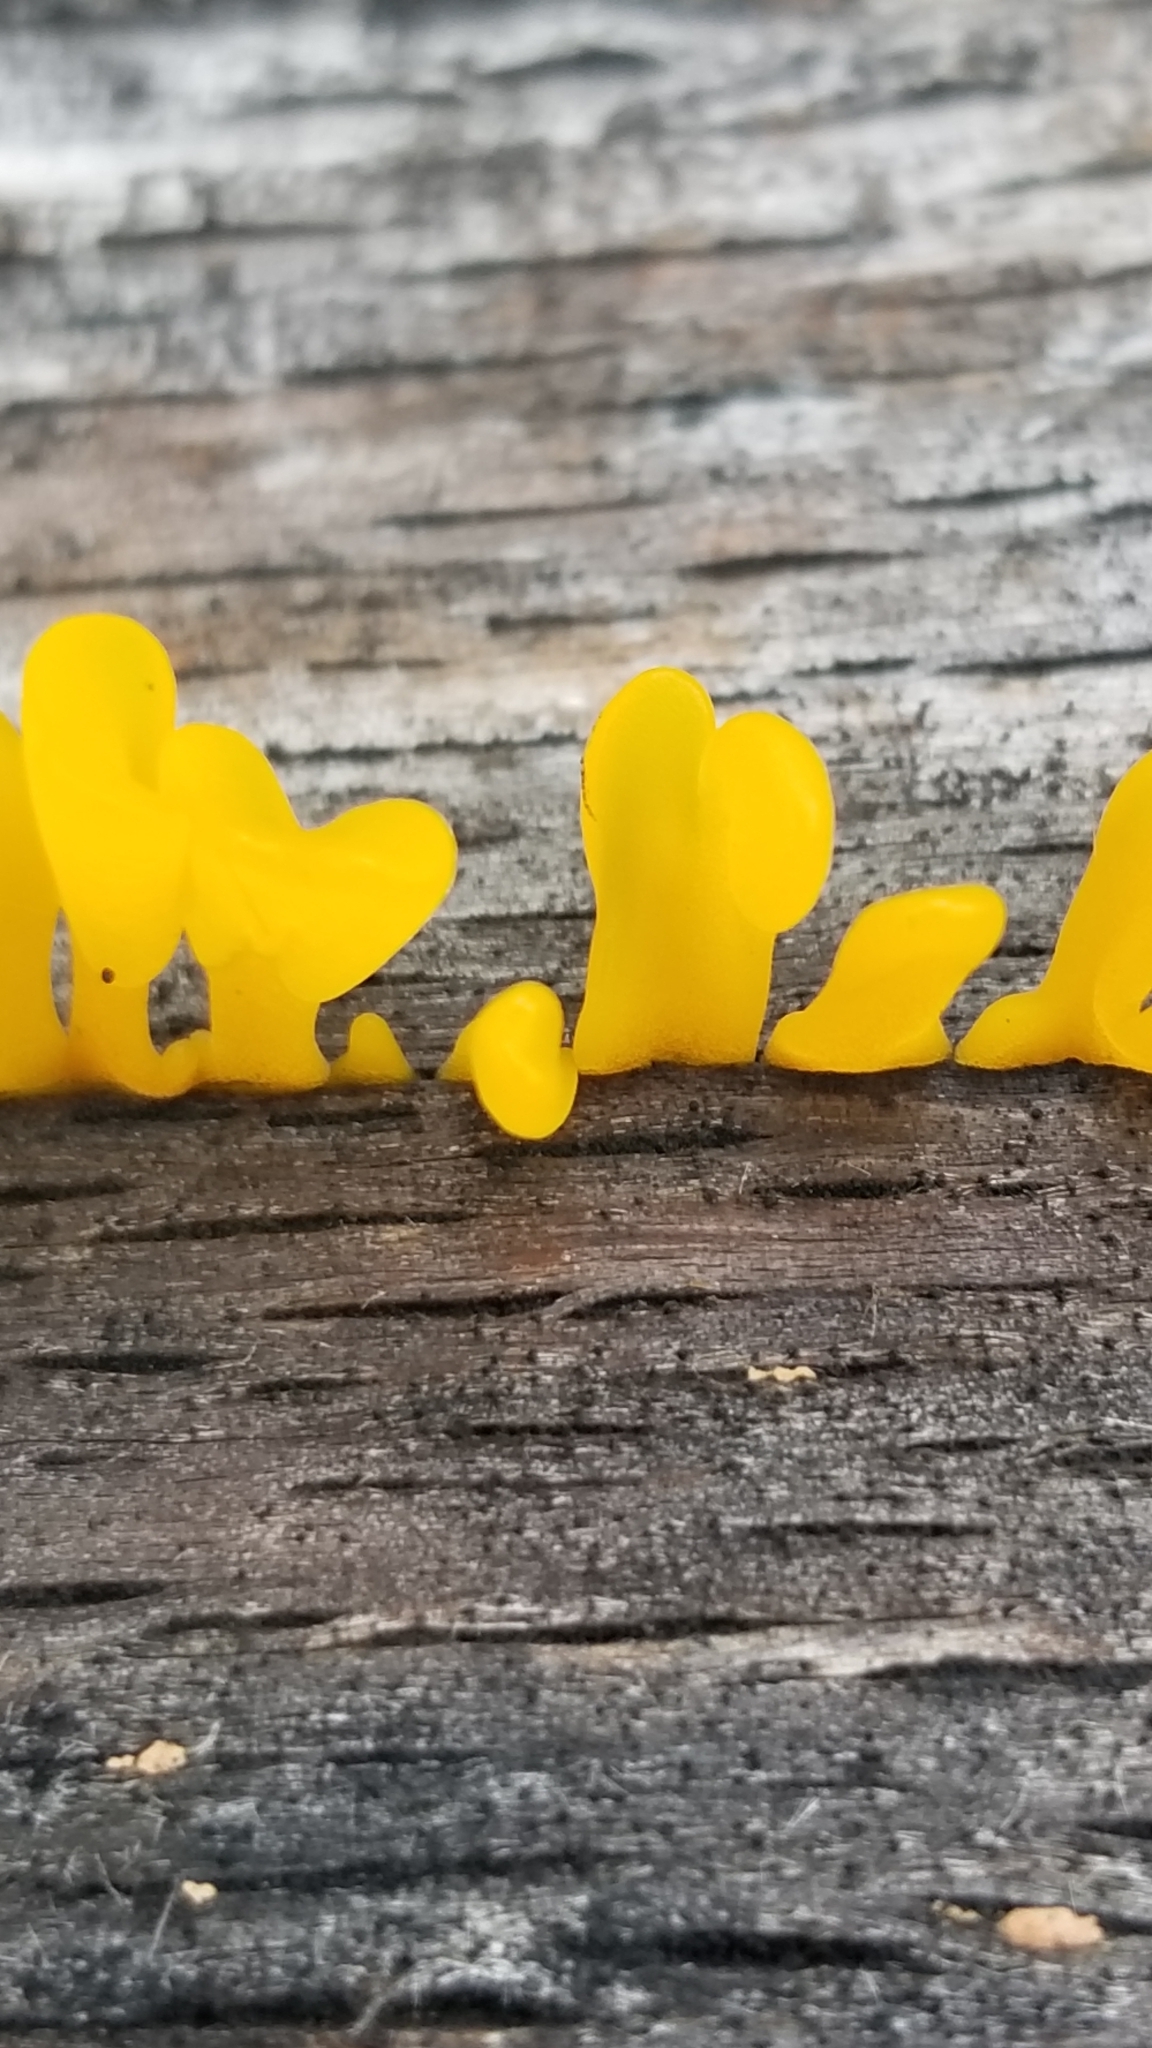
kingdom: Fungi
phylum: Basidiomycota
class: Dacrymycetes
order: Dacrymycetales
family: Dacrymycetaceae
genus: Dacrymyces
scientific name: Dacrymyces spathularius
